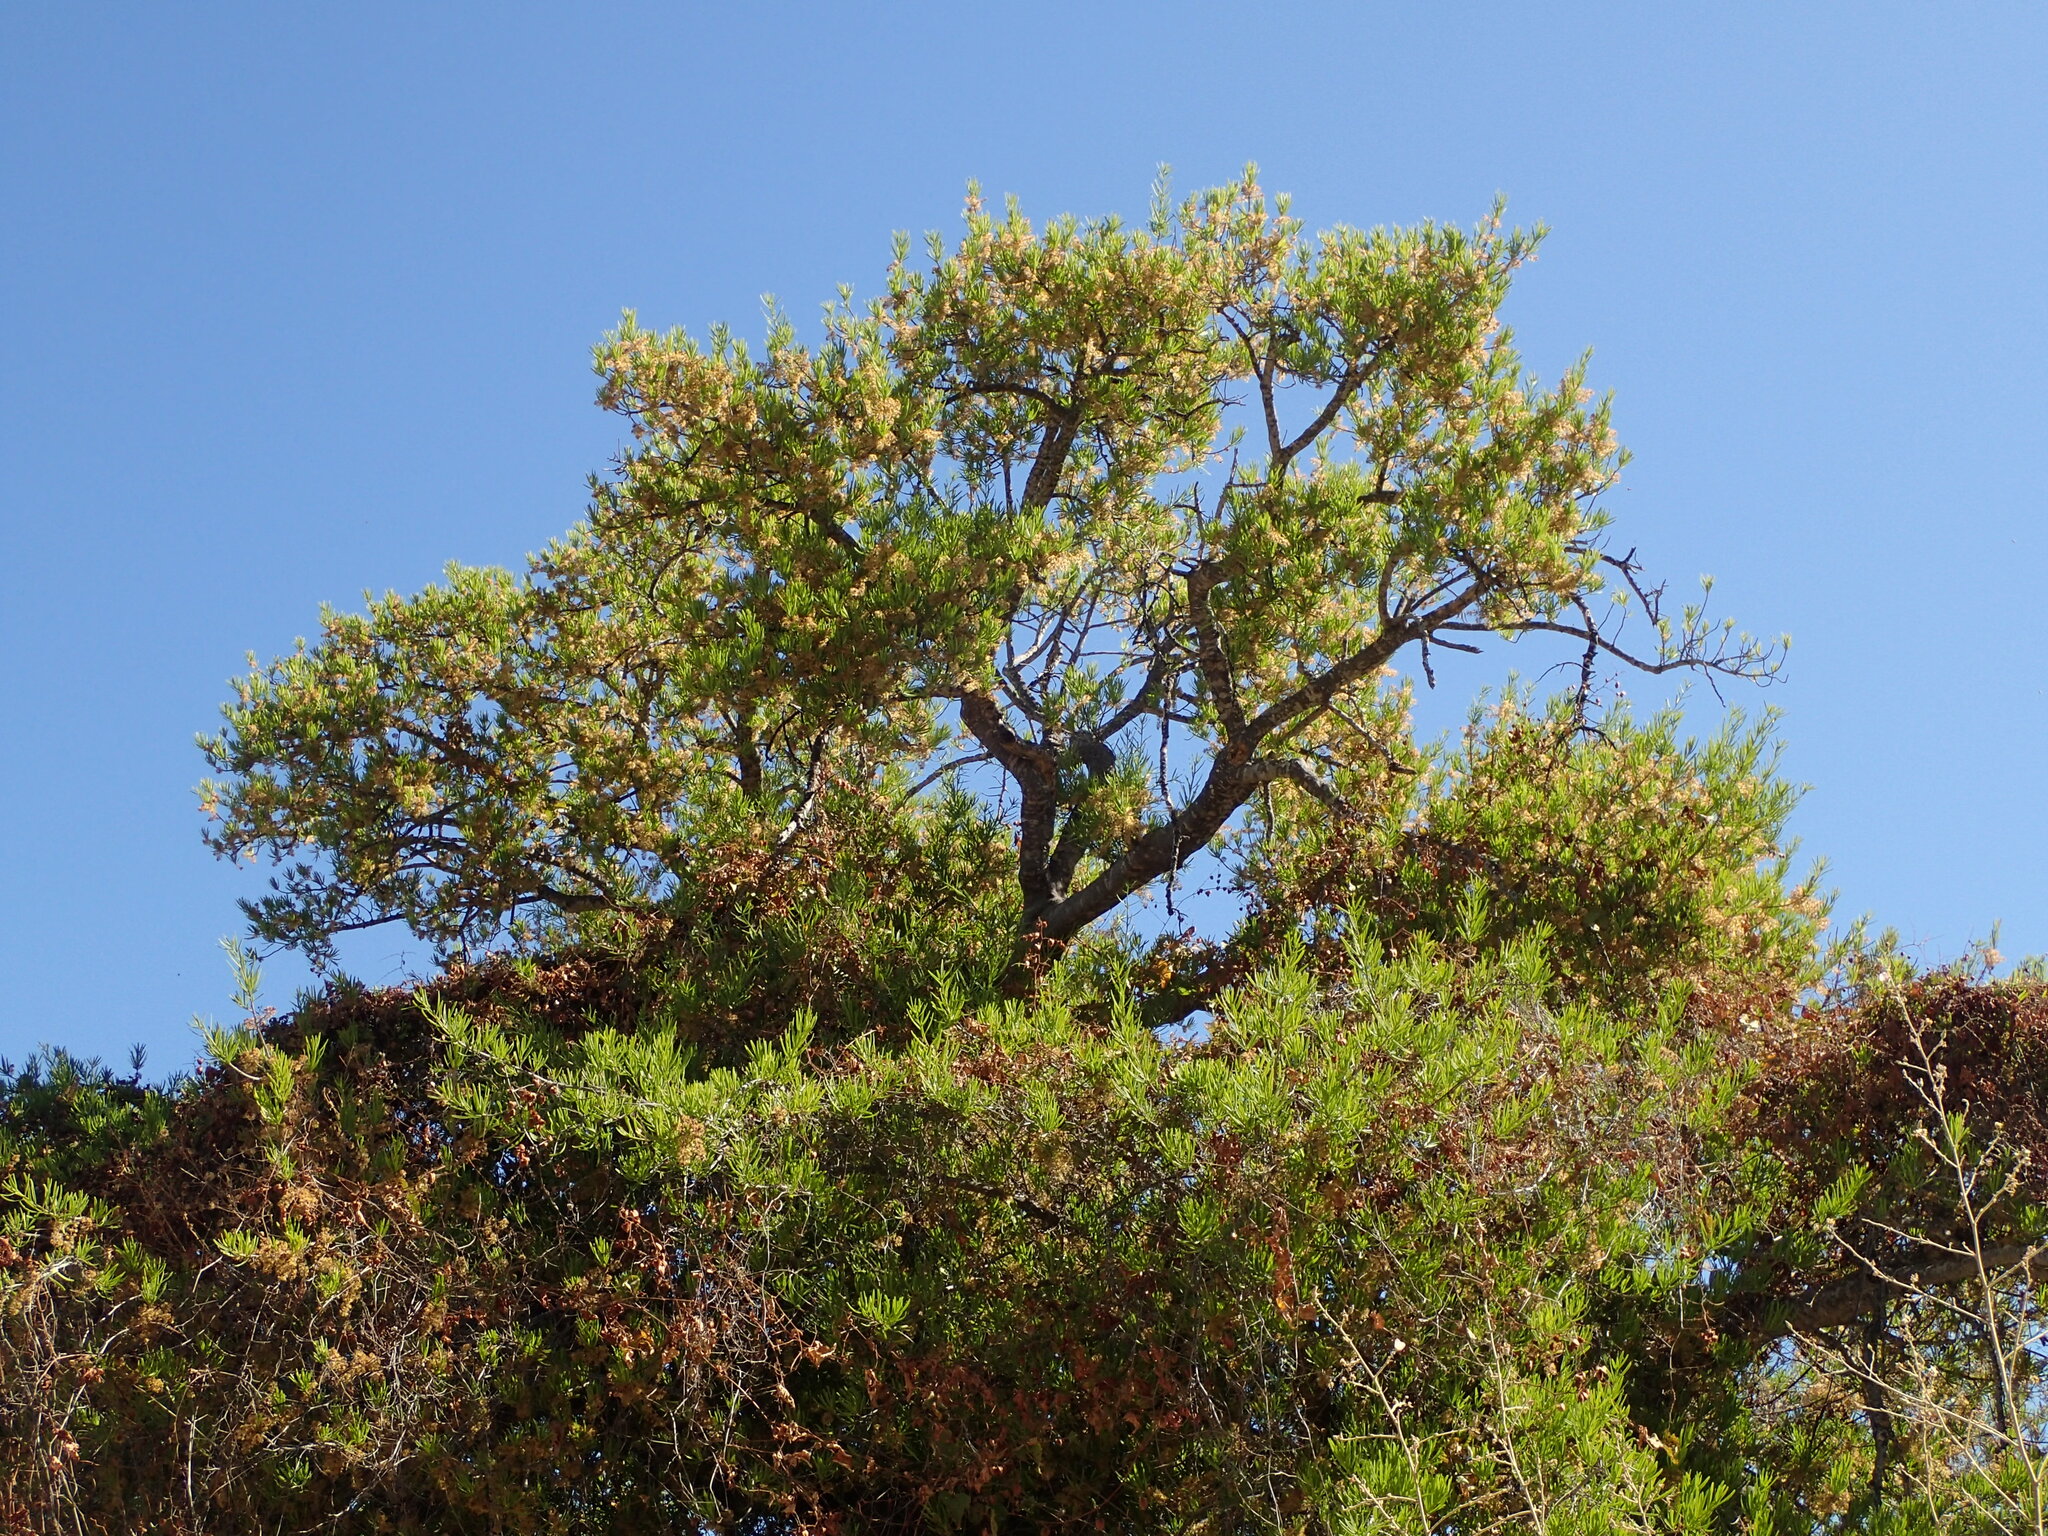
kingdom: Plantae
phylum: Tracheophyta
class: Magnoliopsida
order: Brassicales
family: Stixaceae
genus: Forchhammeria
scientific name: Forchhammeria watsonii
